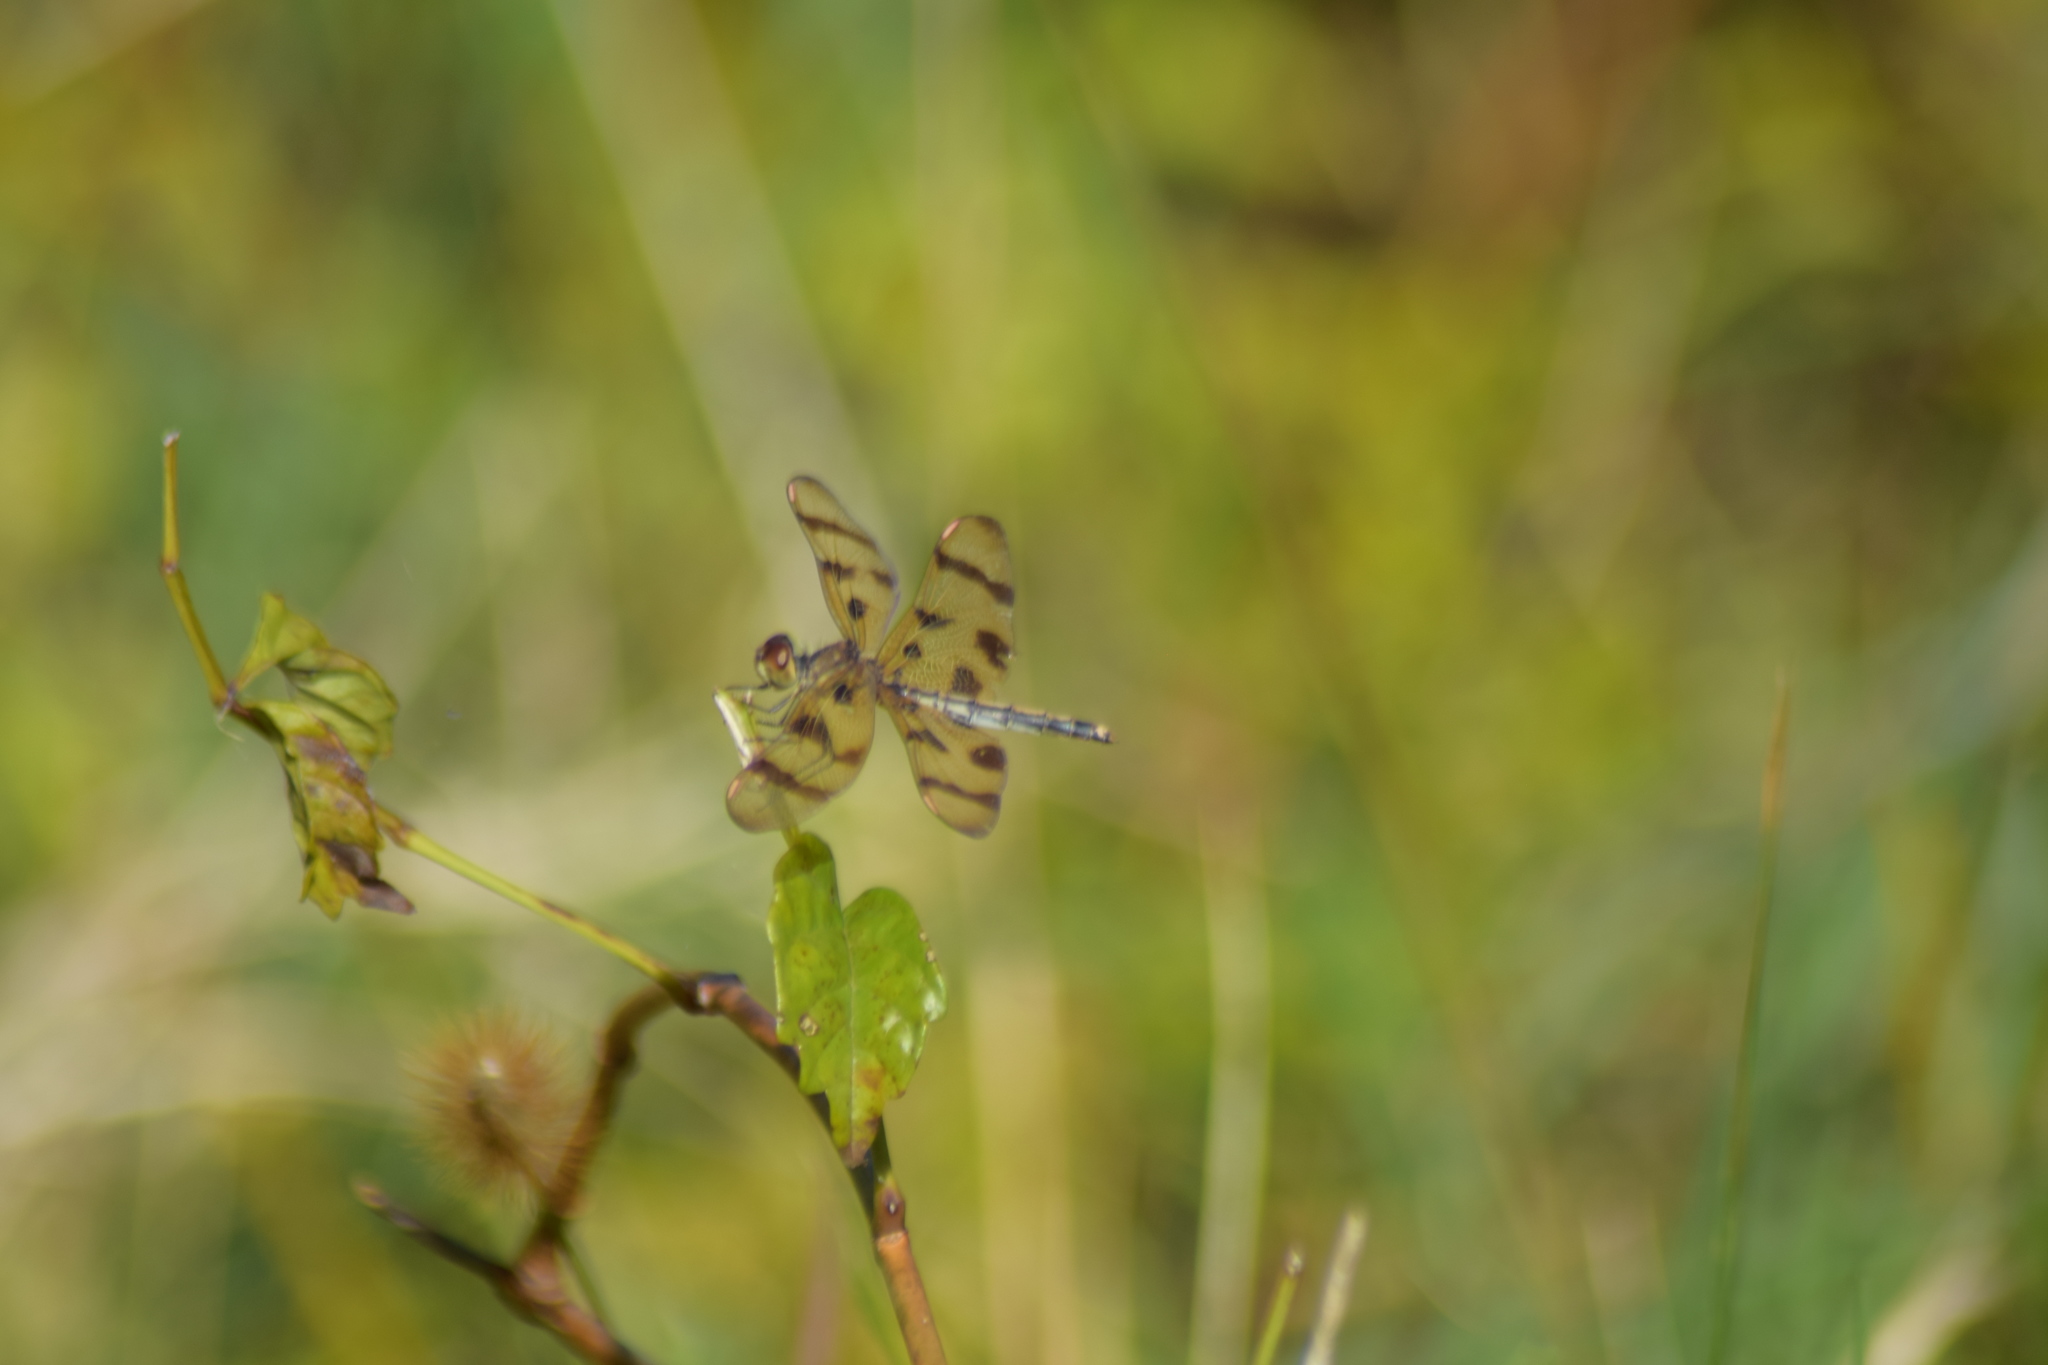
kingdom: Animalia
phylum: Arthropoda
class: Insecta
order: Odonata
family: Libellulidae
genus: Celithemis
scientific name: Celithemis eponina
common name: Halloween pennant
